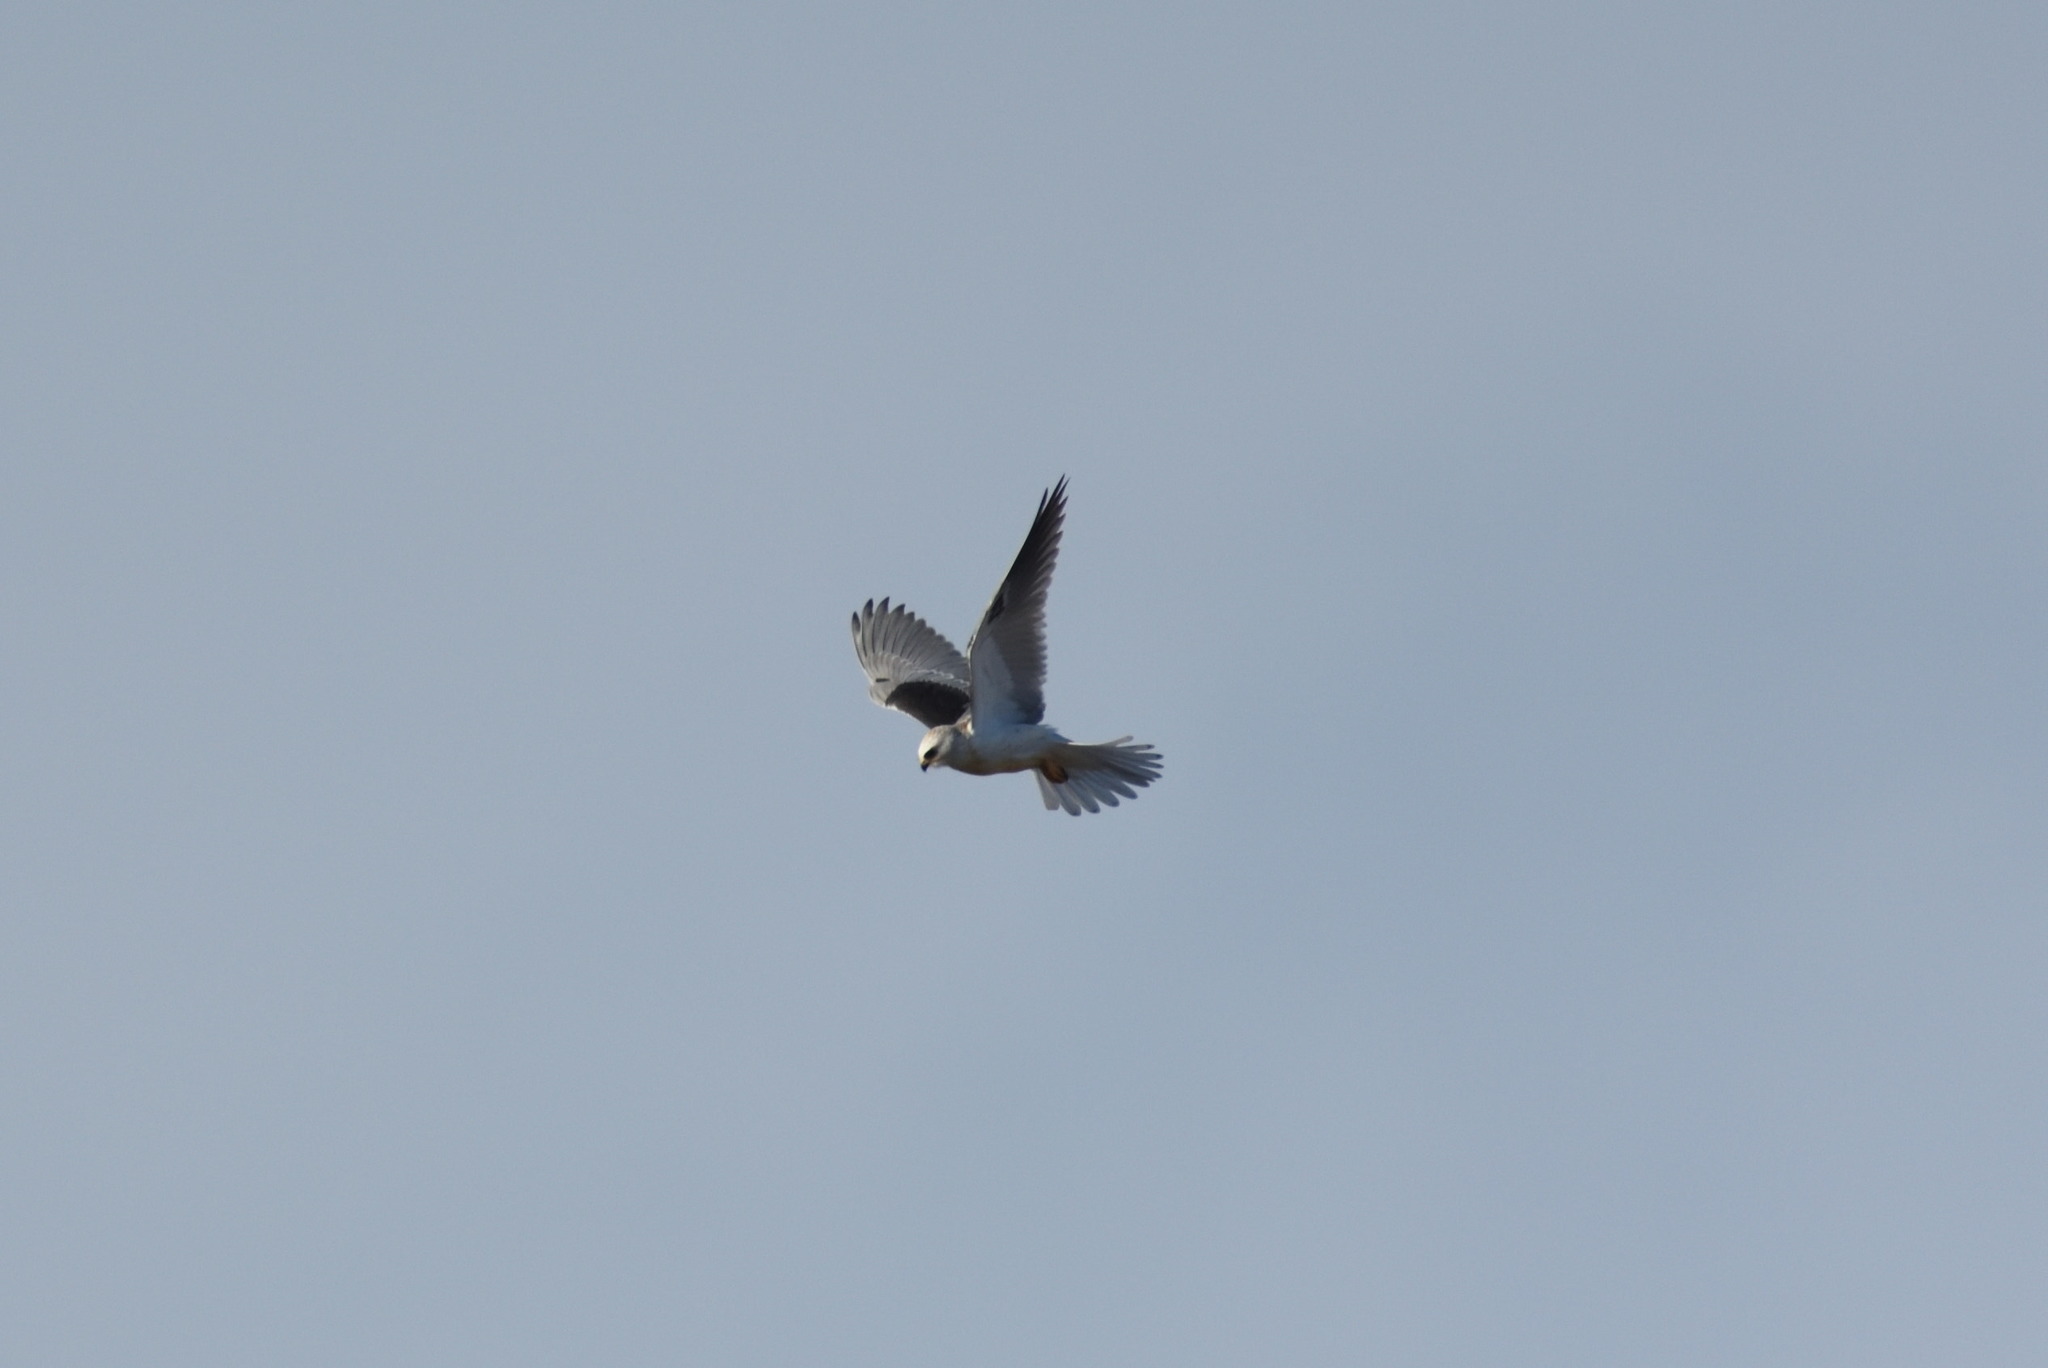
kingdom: Animalia
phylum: Chordata
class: Aves
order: Accipitriformes
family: Accipitridae
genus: Elanus
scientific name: Elanus leucurus
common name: White-tailed kite
